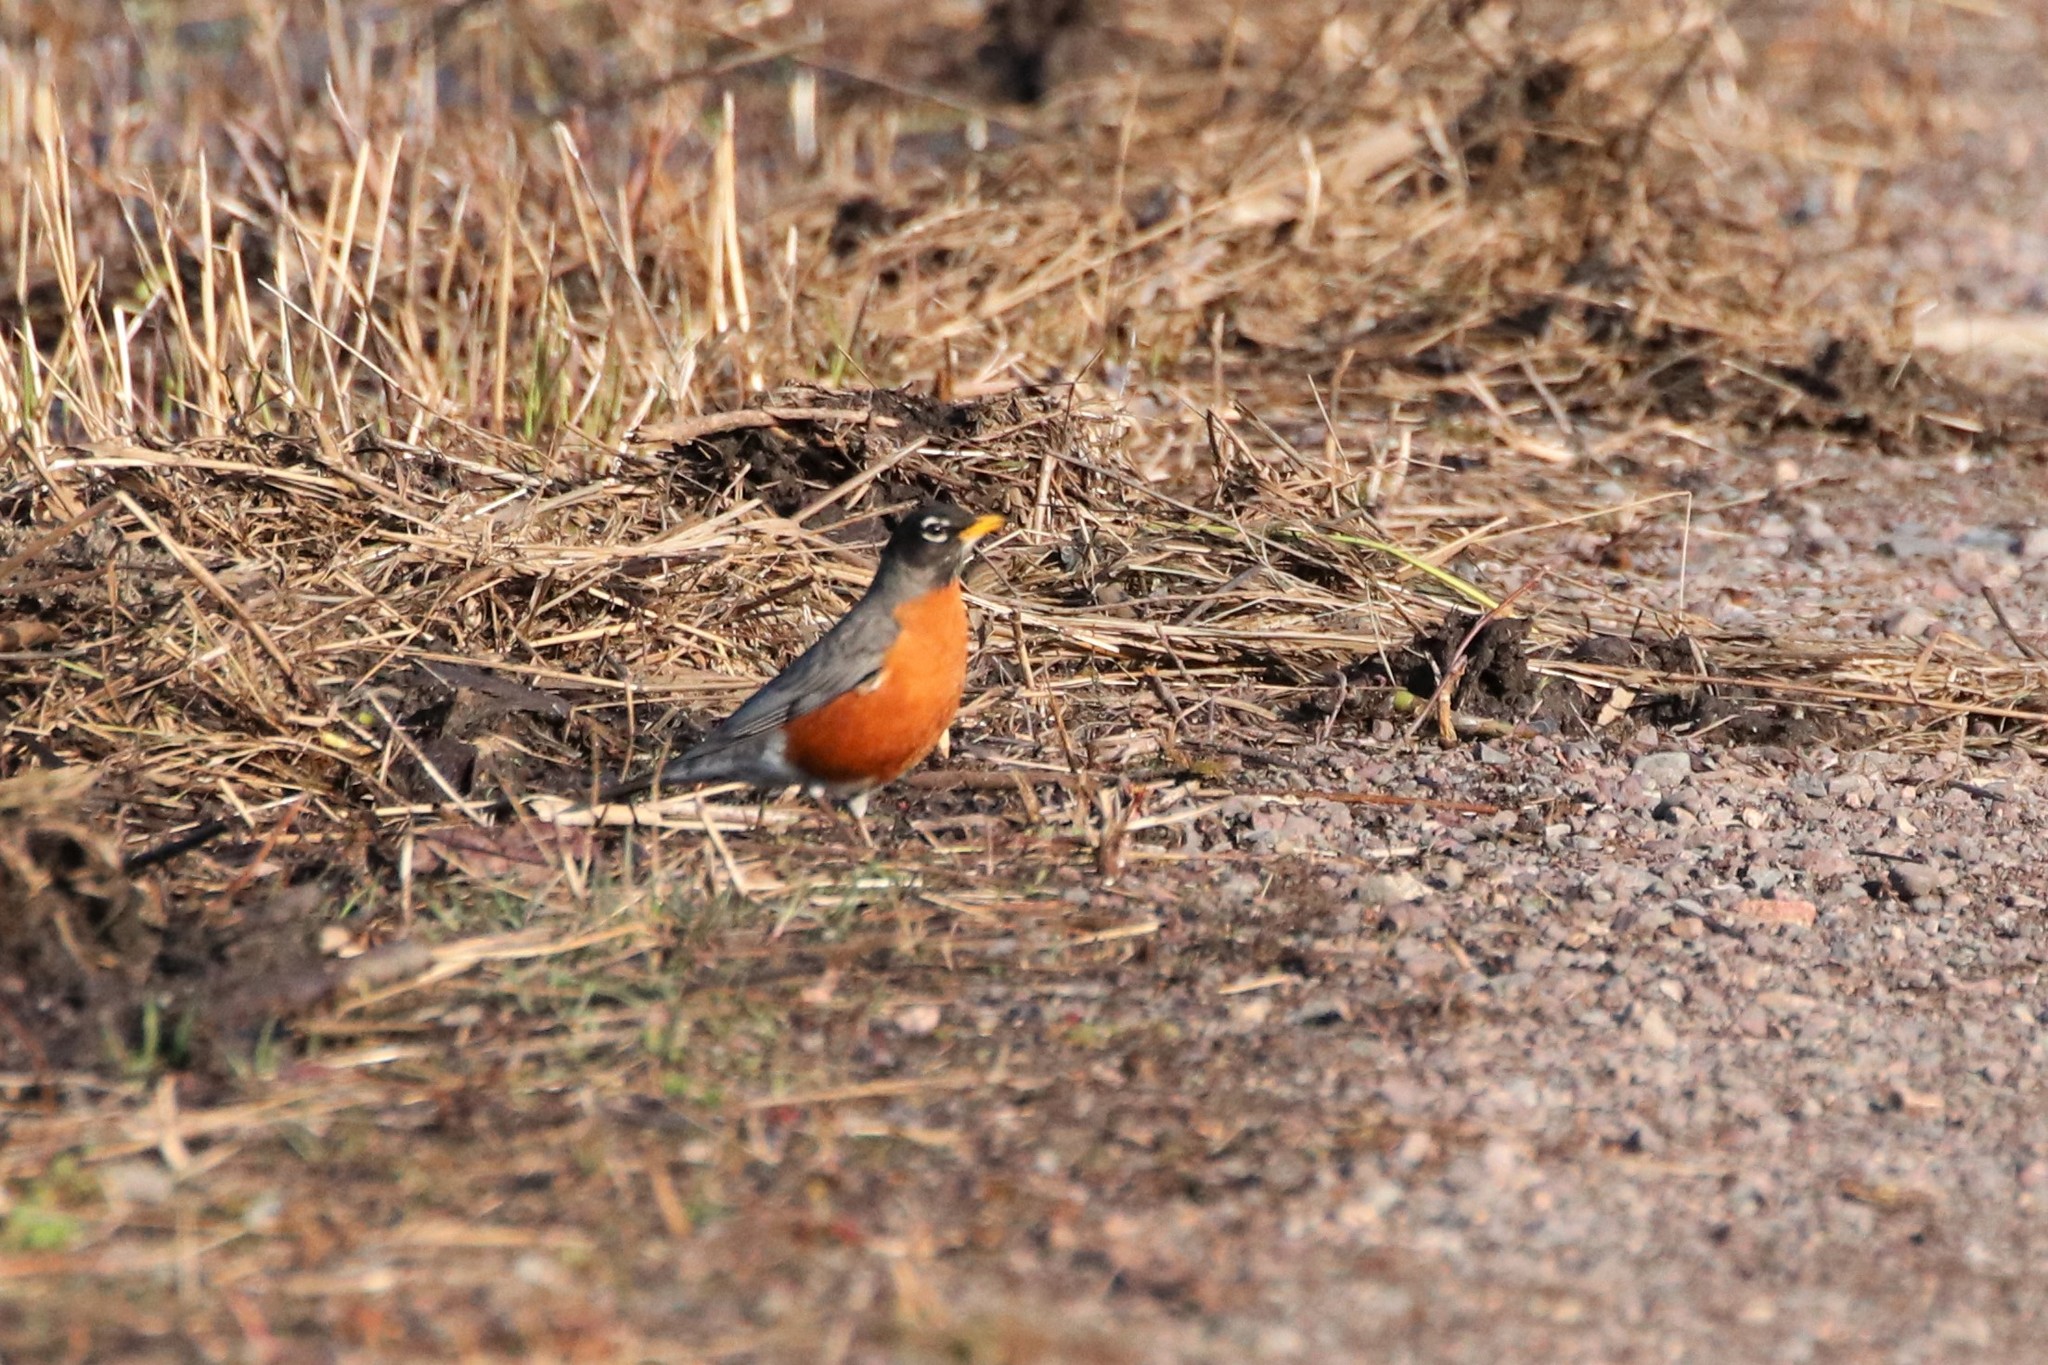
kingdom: Animalia
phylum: Chordata
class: Aves
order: Passeriformes
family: Turdidae
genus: Turdus
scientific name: Turdus migratorius
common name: American robin
